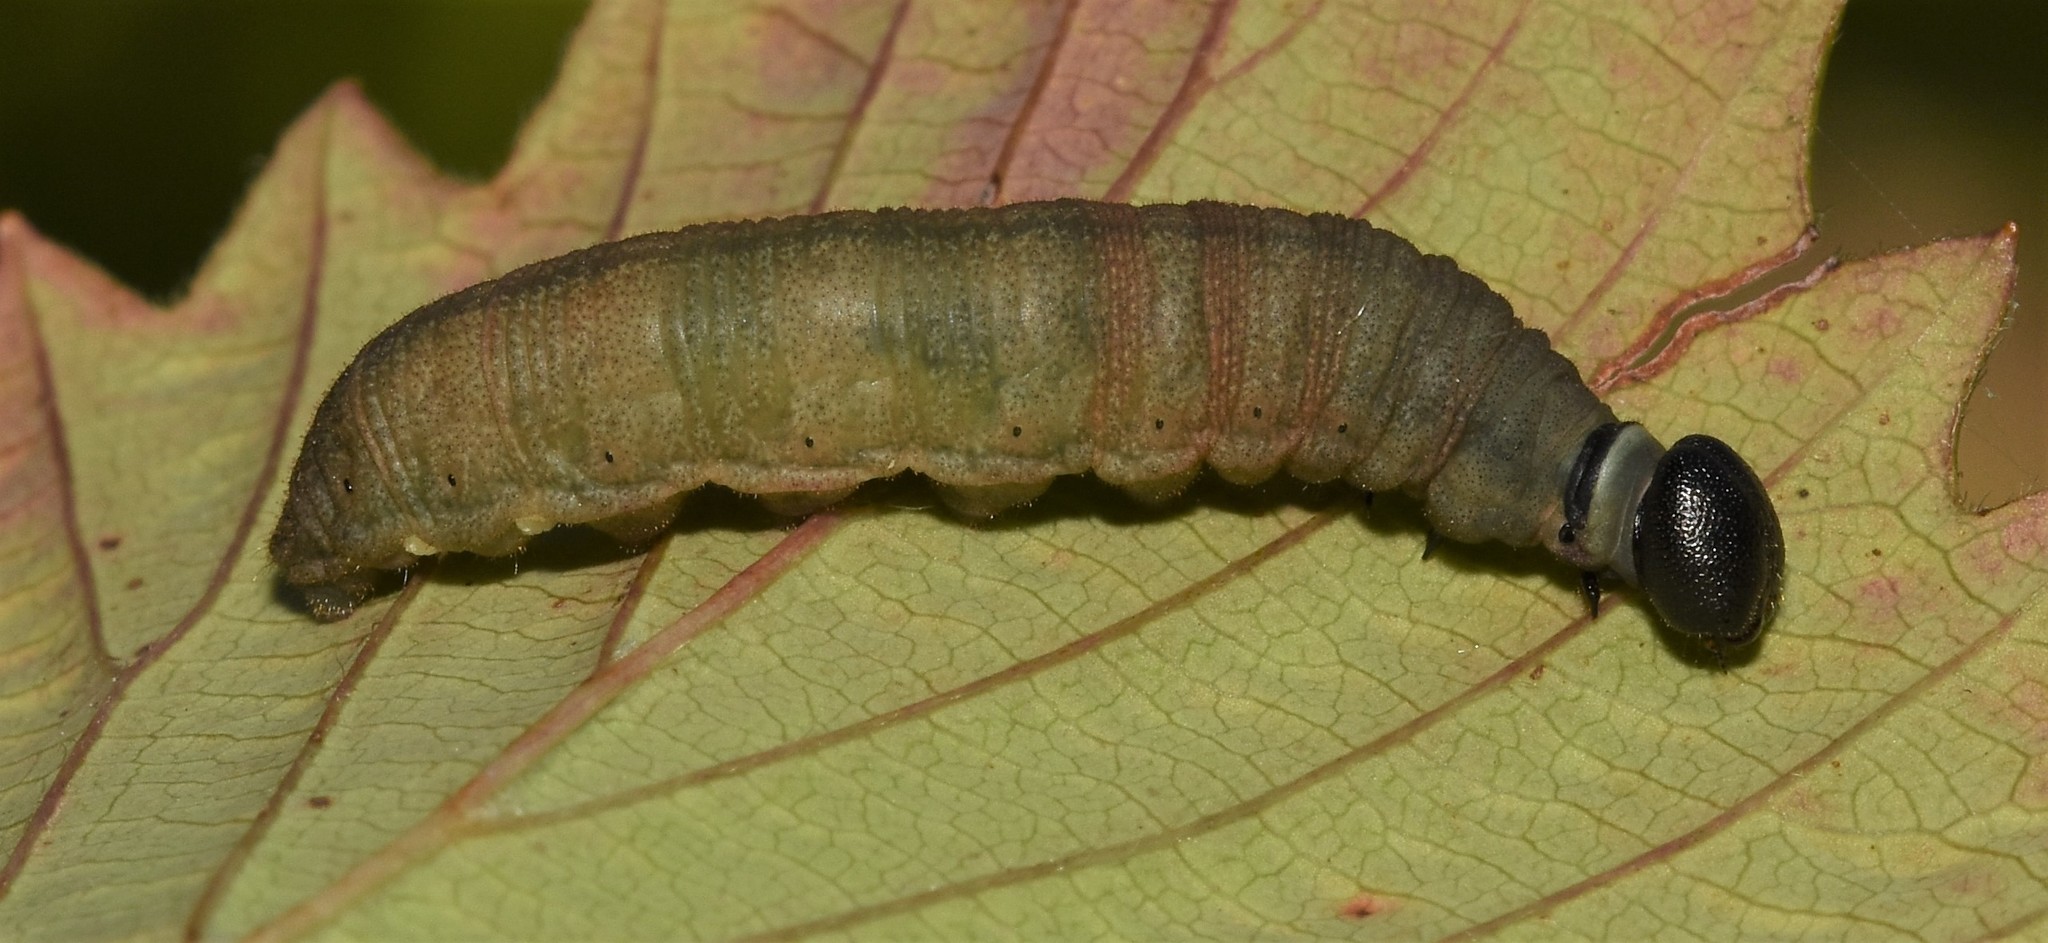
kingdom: Animalia
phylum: Arthropoda
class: Insecta
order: Lepidoptera
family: Hesperiidae
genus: Atalopedes
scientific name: Atalopedes
